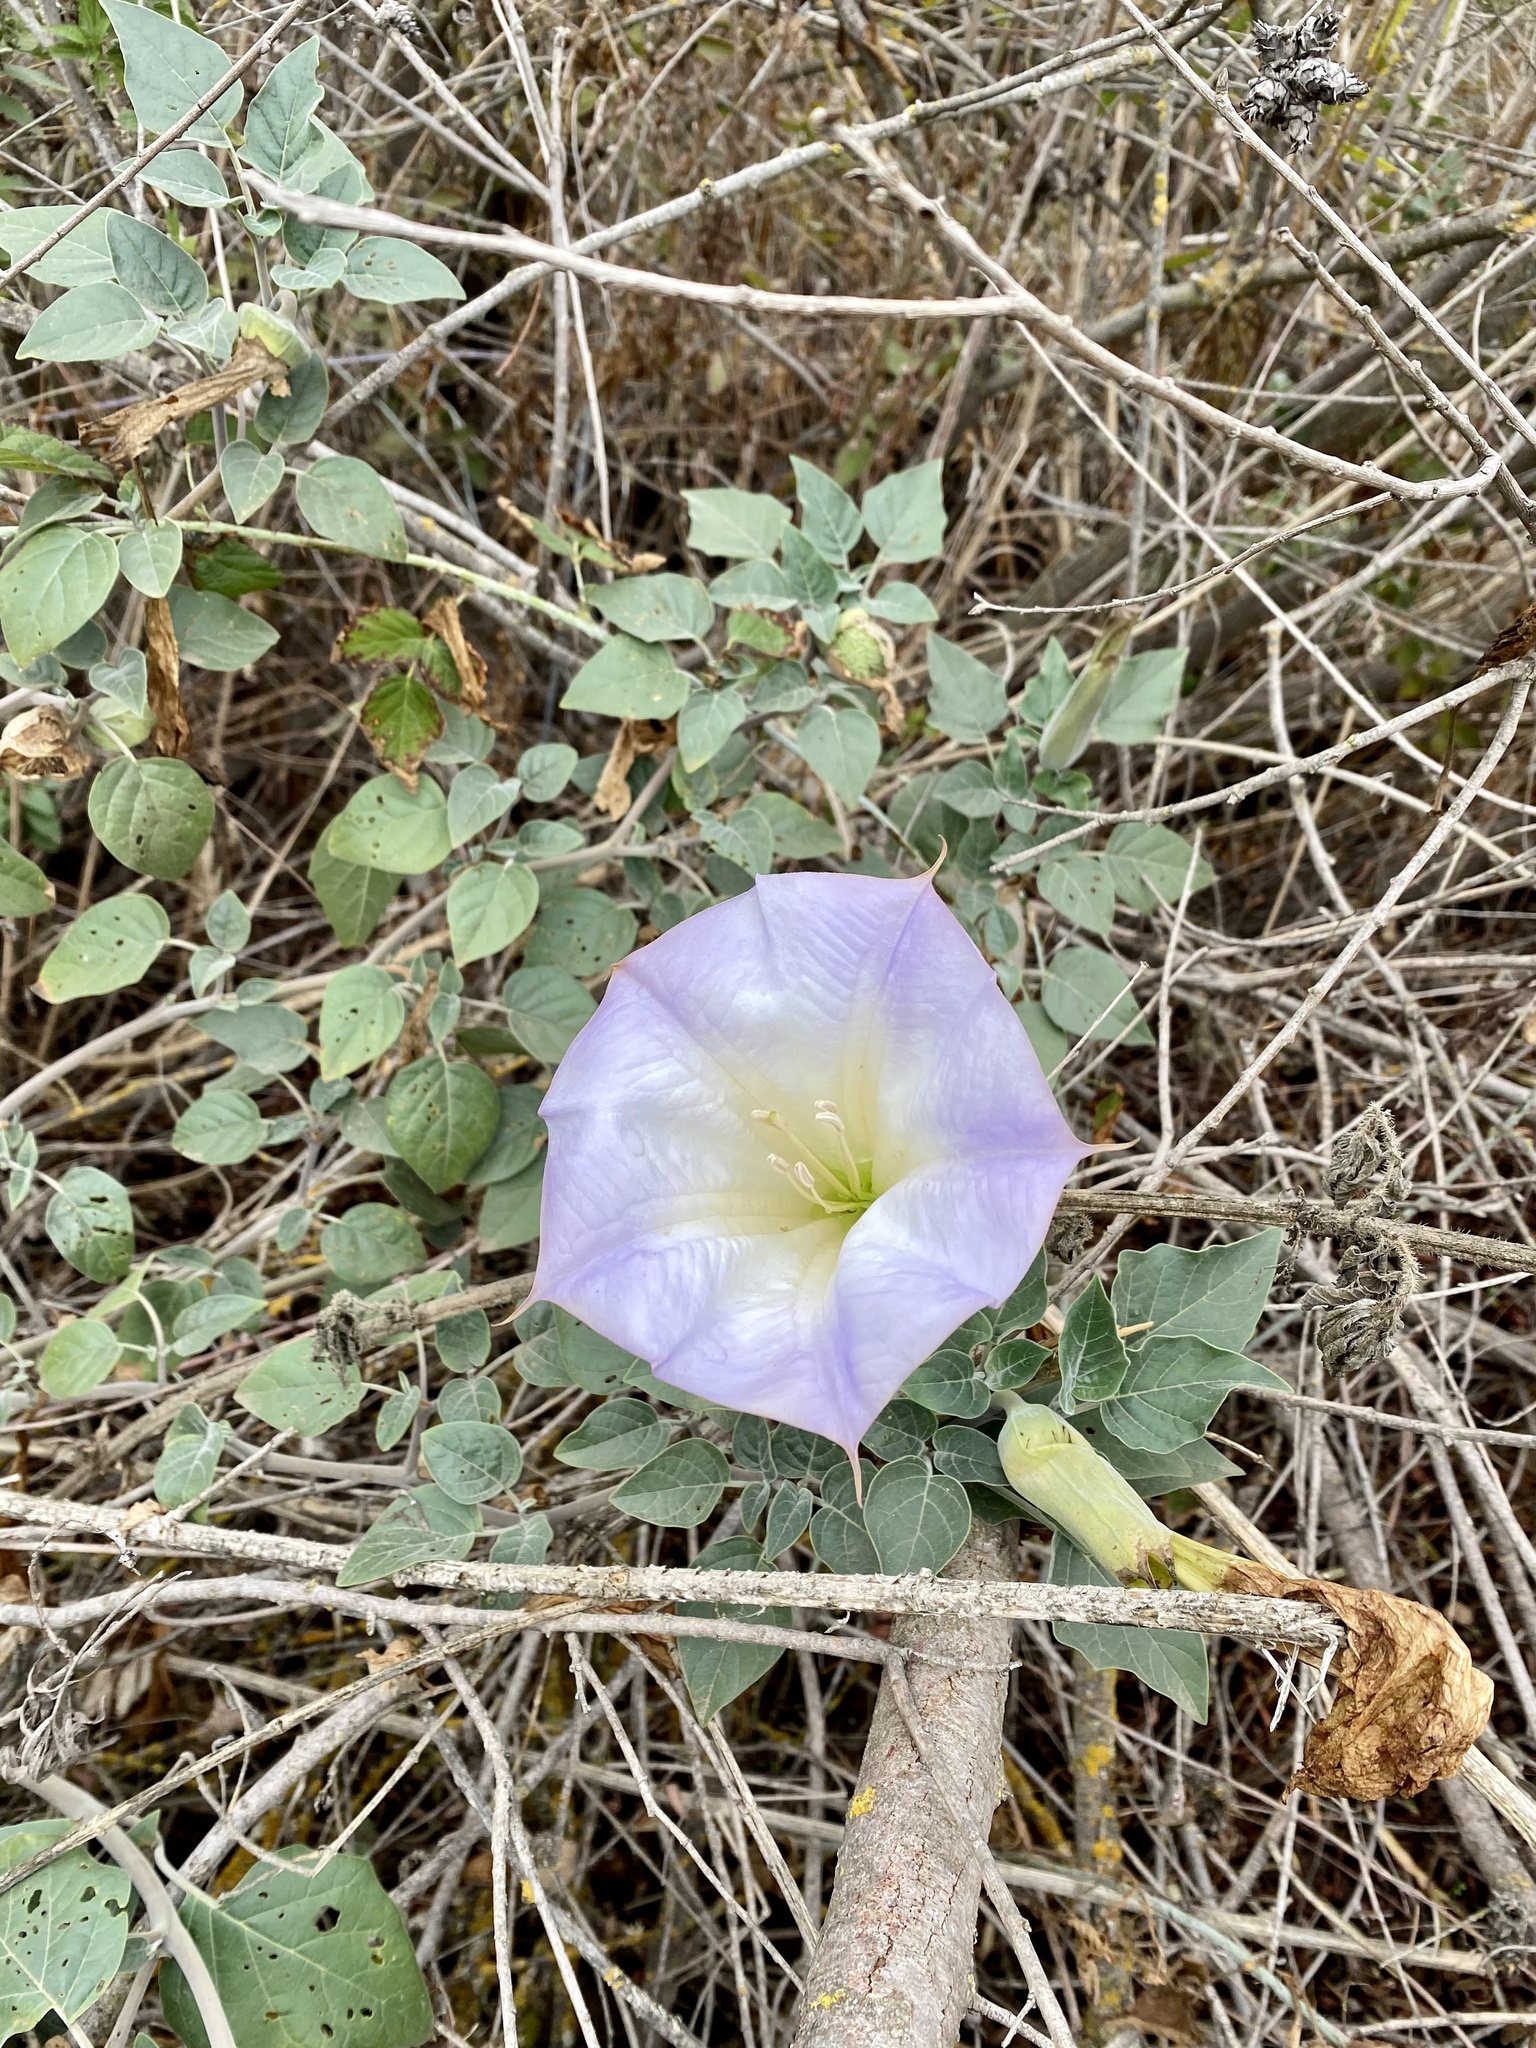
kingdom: Plantae
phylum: Tracheophyta
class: Magnoliopsida
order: Solanales
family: Solanaceae
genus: Datura
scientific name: Datura wrightii
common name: Sacred thorn-apple
